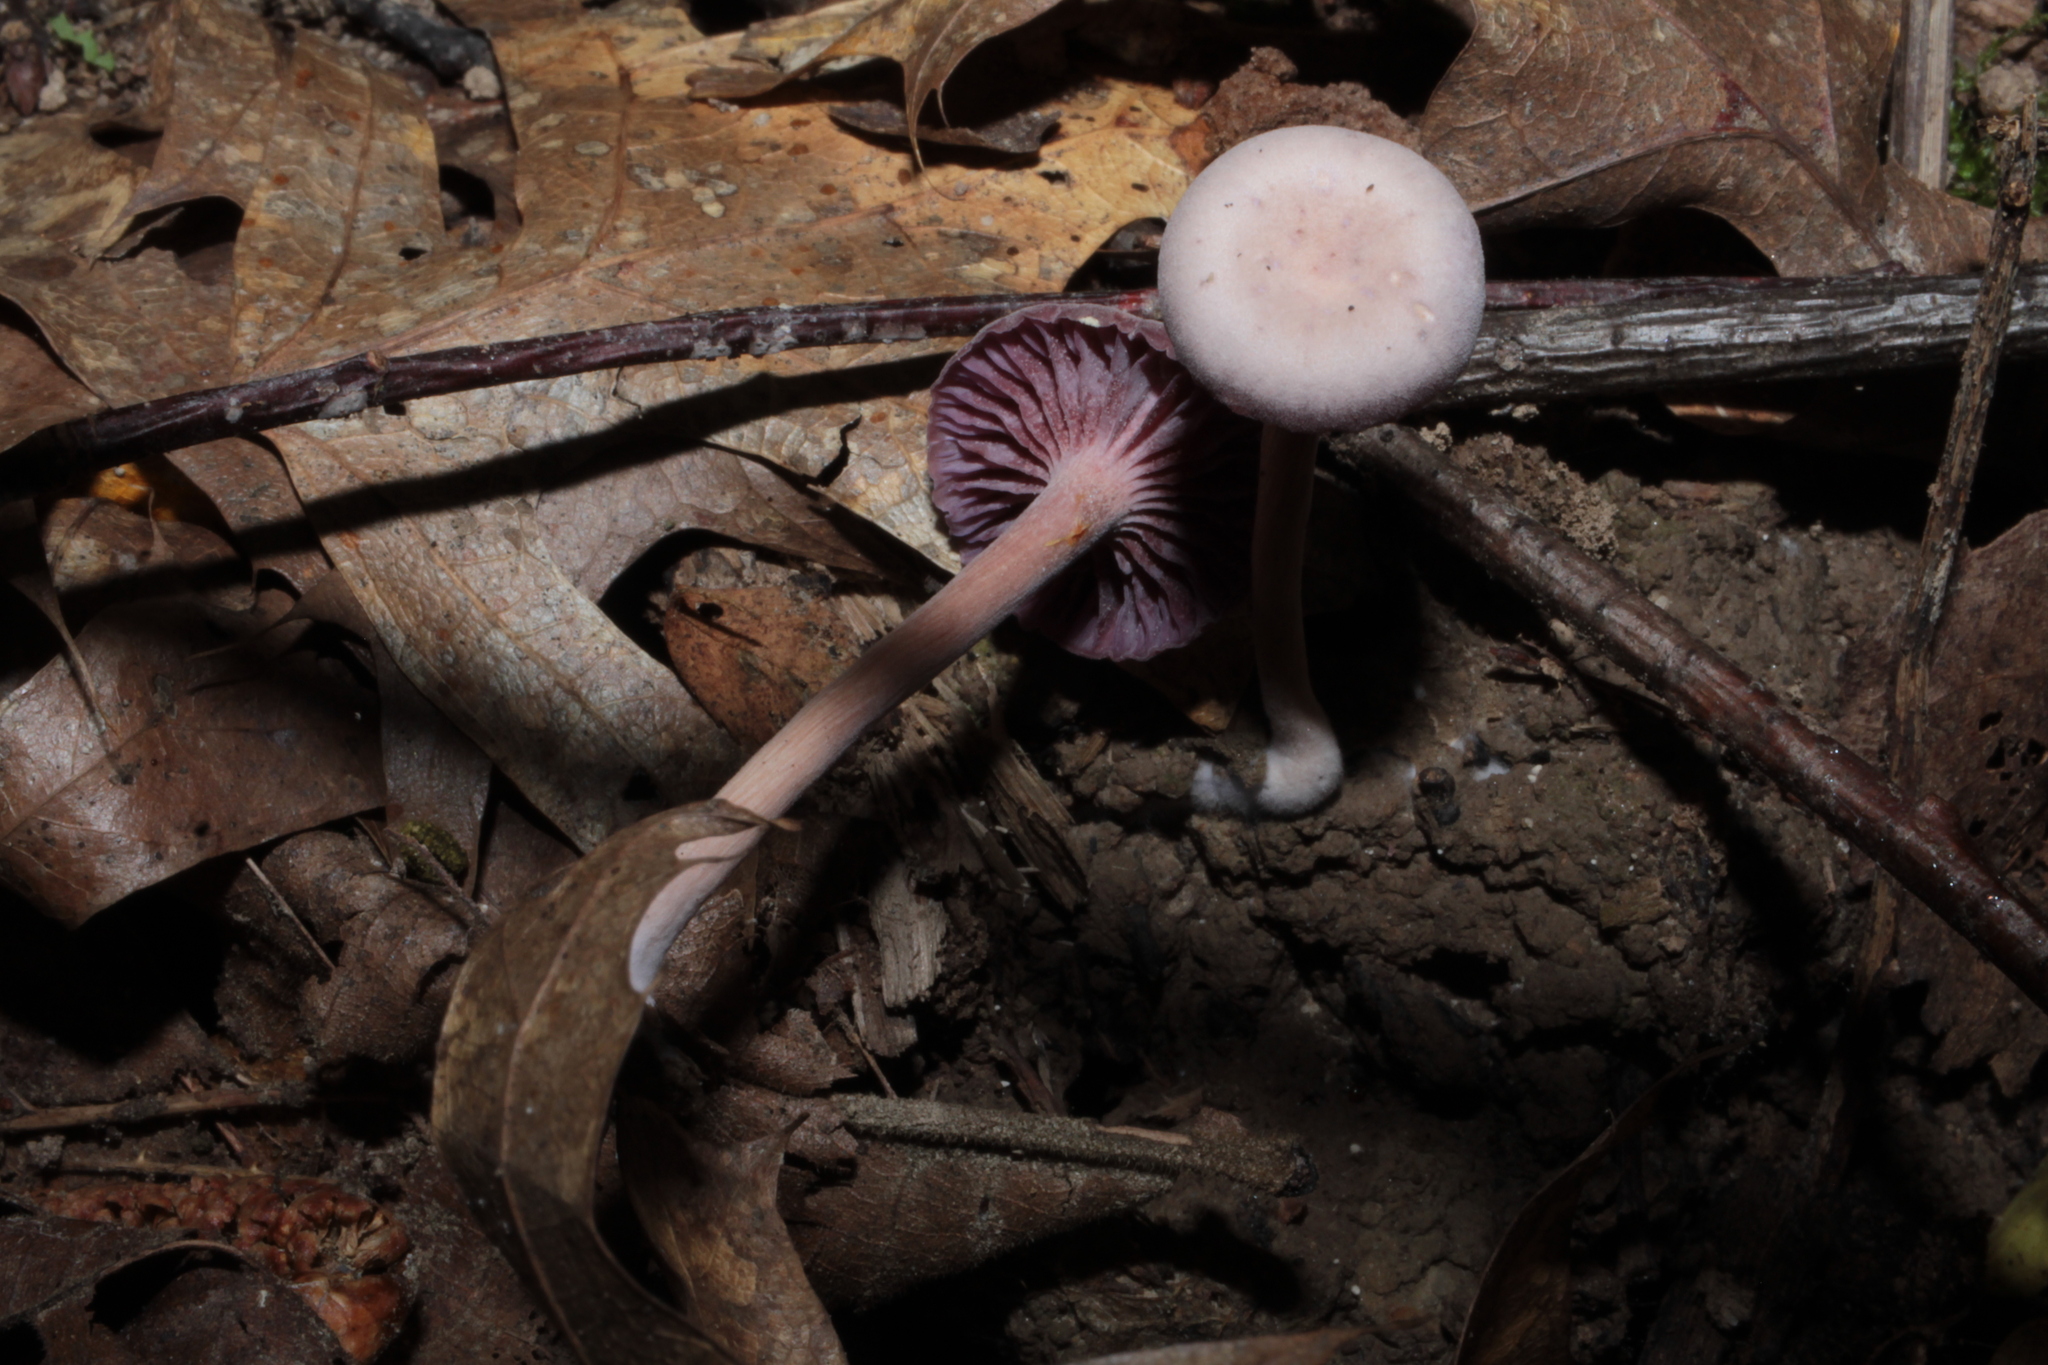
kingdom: Fungi
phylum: Basidiomycota
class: Agaricomycetes
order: Agaricales
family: Hydnangiaceae
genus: Laccaria
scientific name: Laccaria amethystina
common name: Amethyst deceiver
